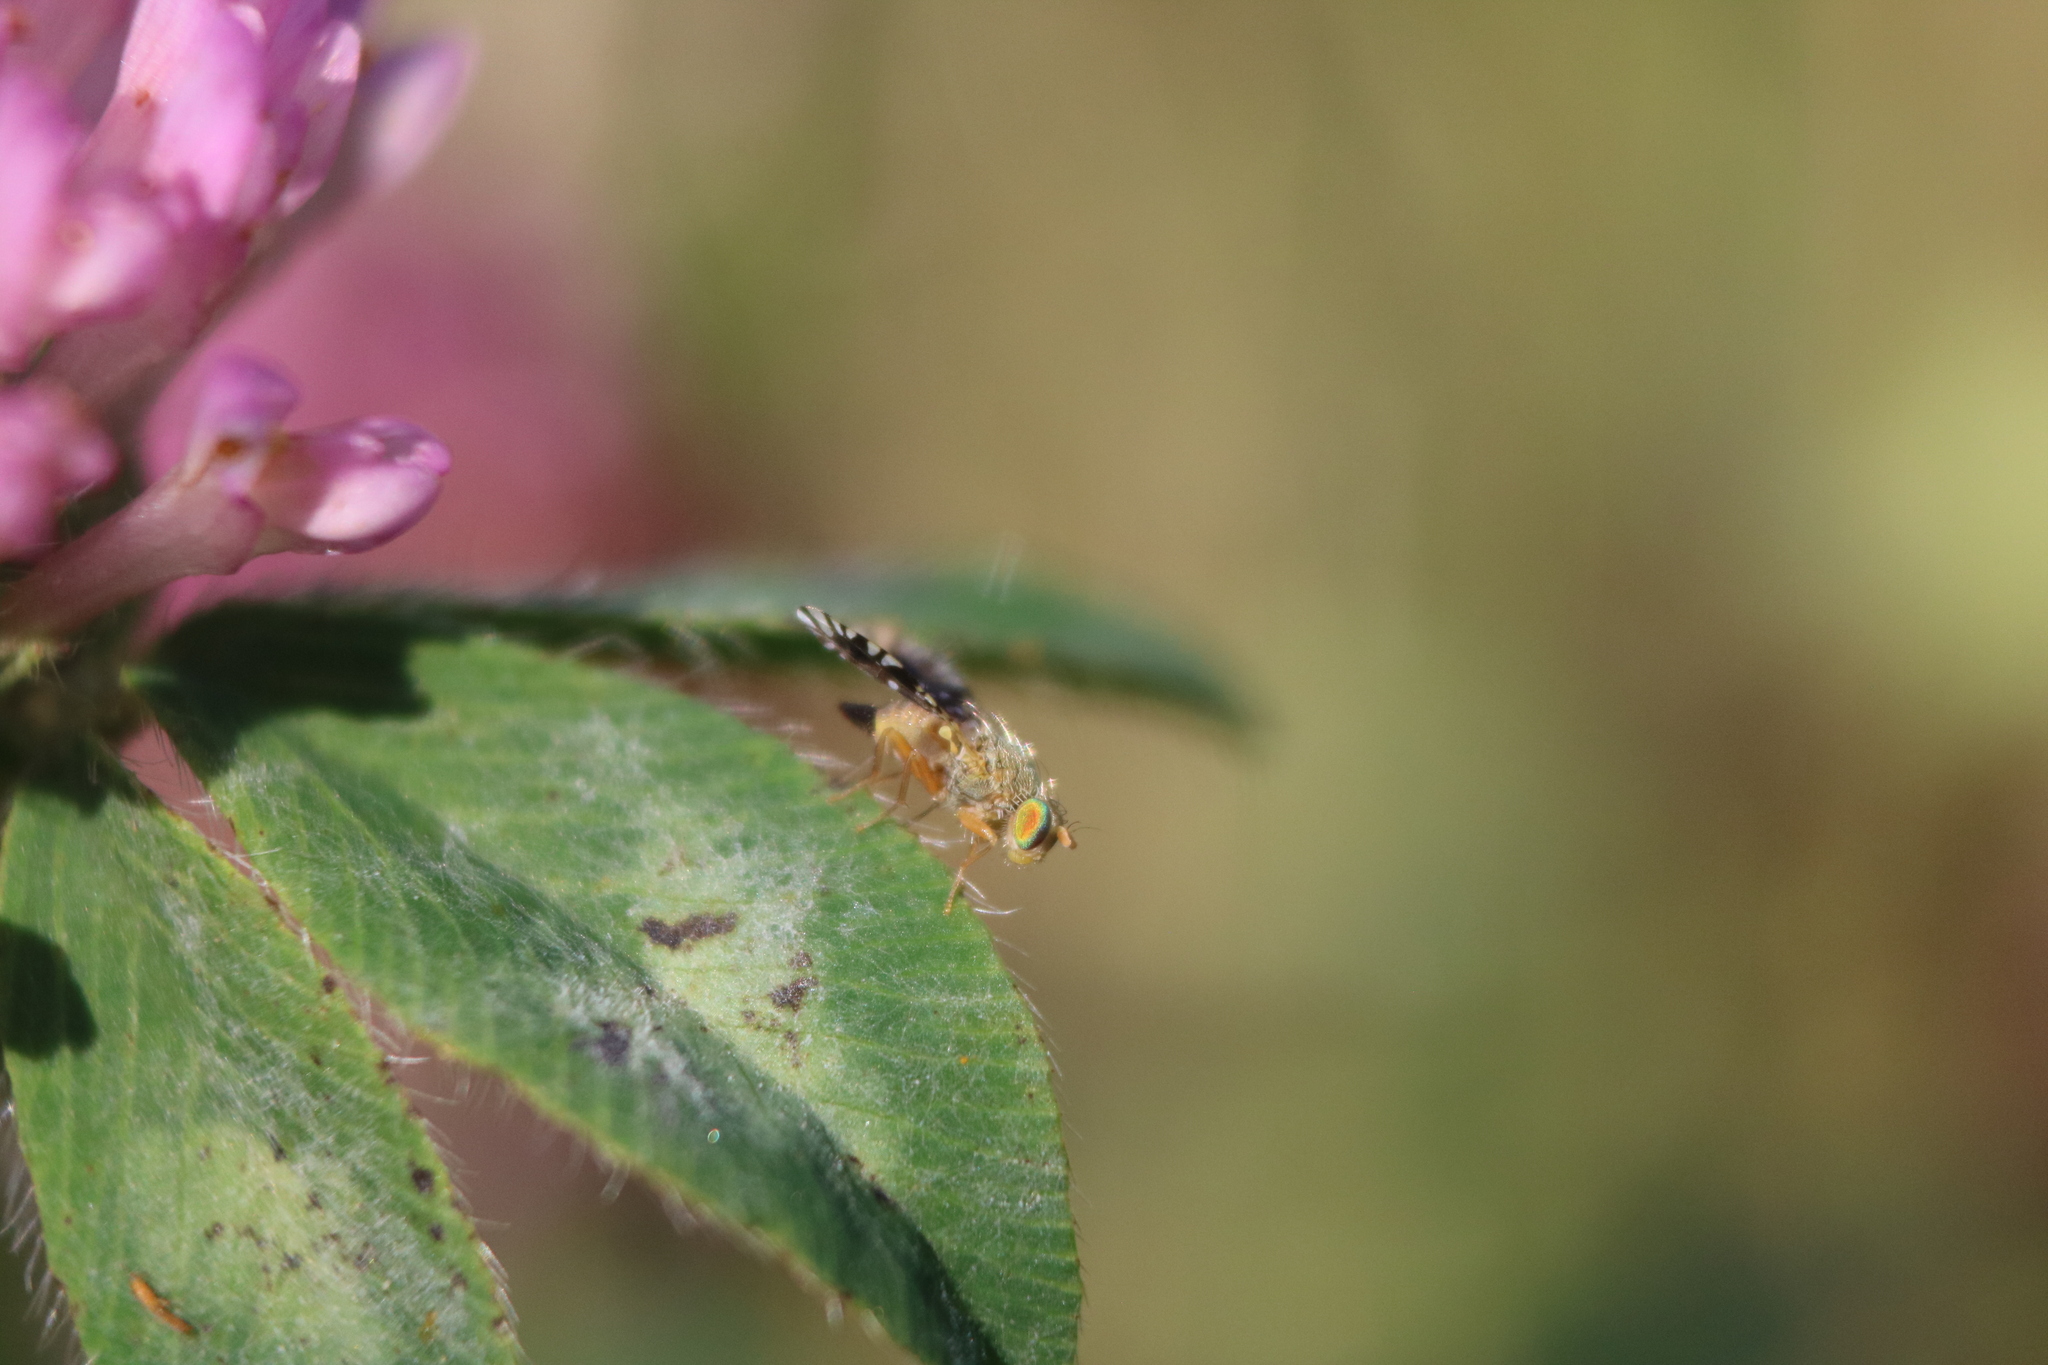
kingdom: Animalia
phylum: Arthropoda
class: Insecta
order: Diptera
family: Tephritidae
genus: Euaresta
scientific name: Euaresta bella
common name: Common ragweed fruit fly
